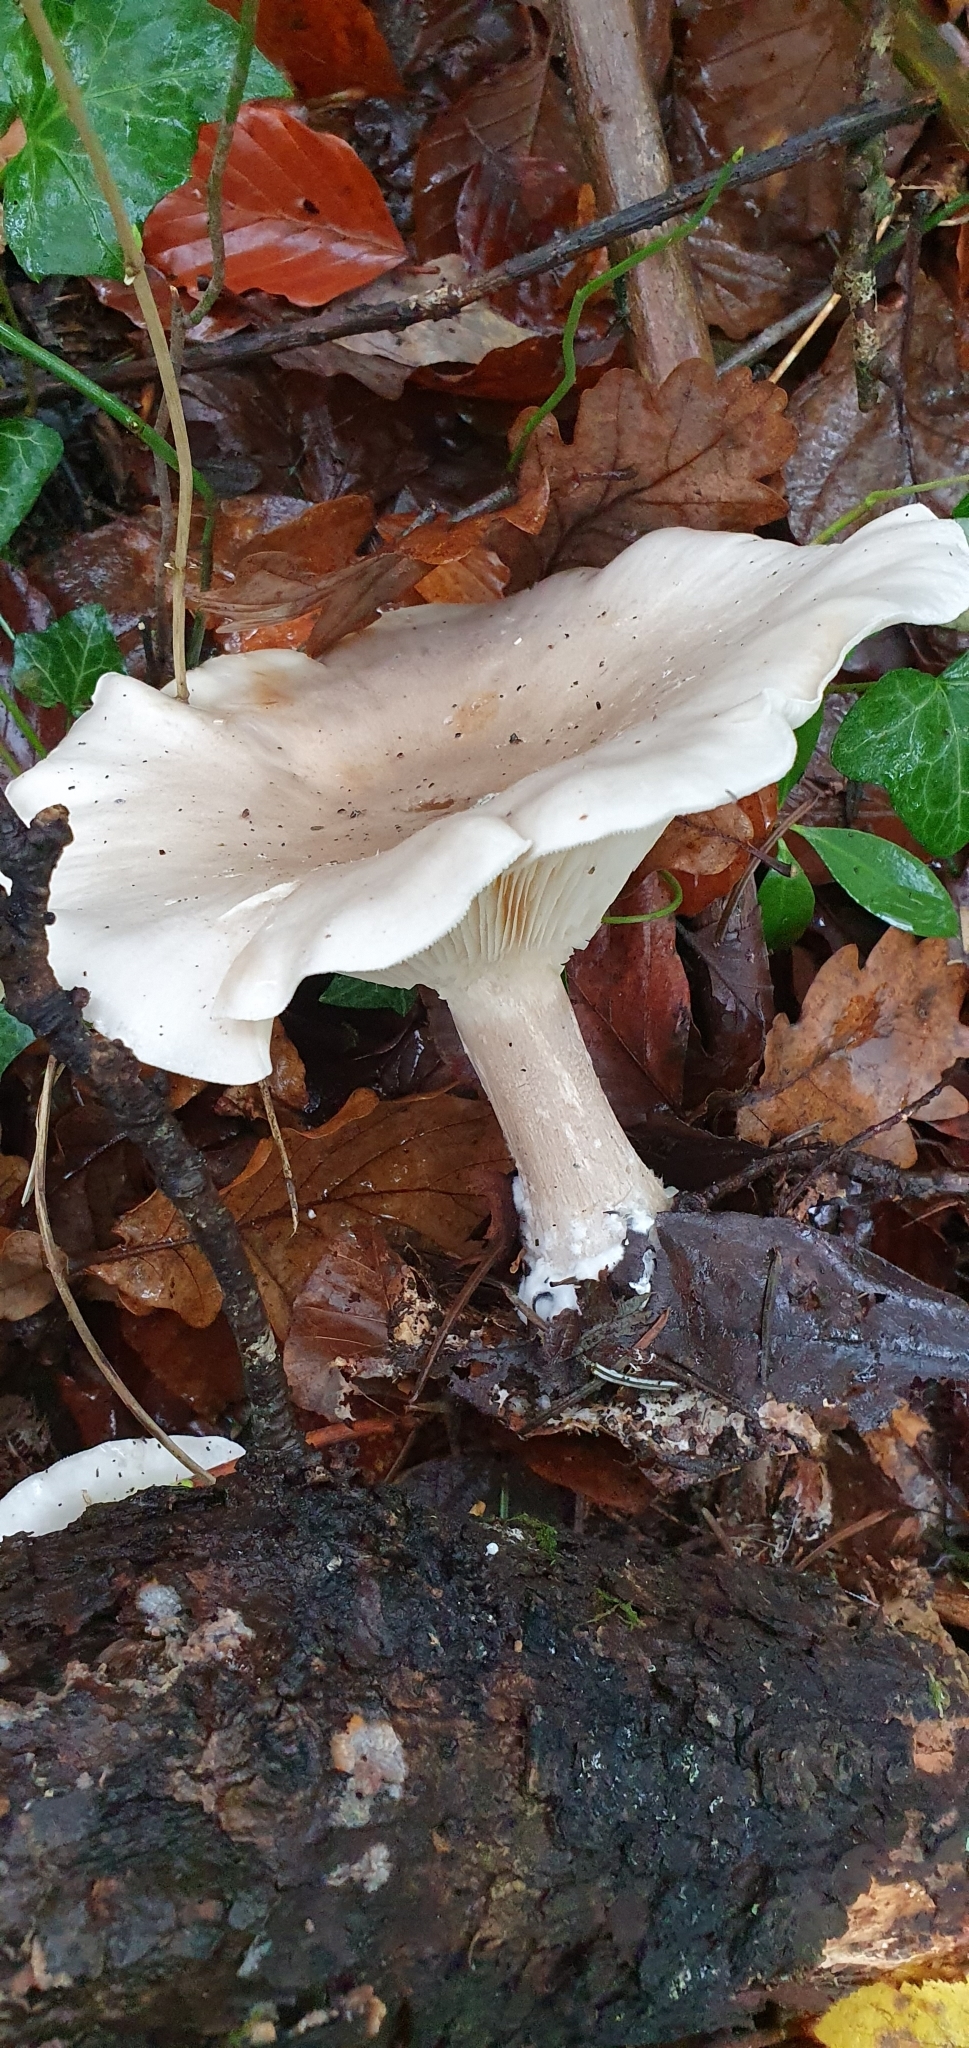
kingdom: Fungi
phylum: Basidiomycota
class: Agaricomycetes
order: Agaricales
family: Tricholomataceae
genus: Clitocybe
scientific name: Clitocybe nebularis
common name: Clouded agaric
